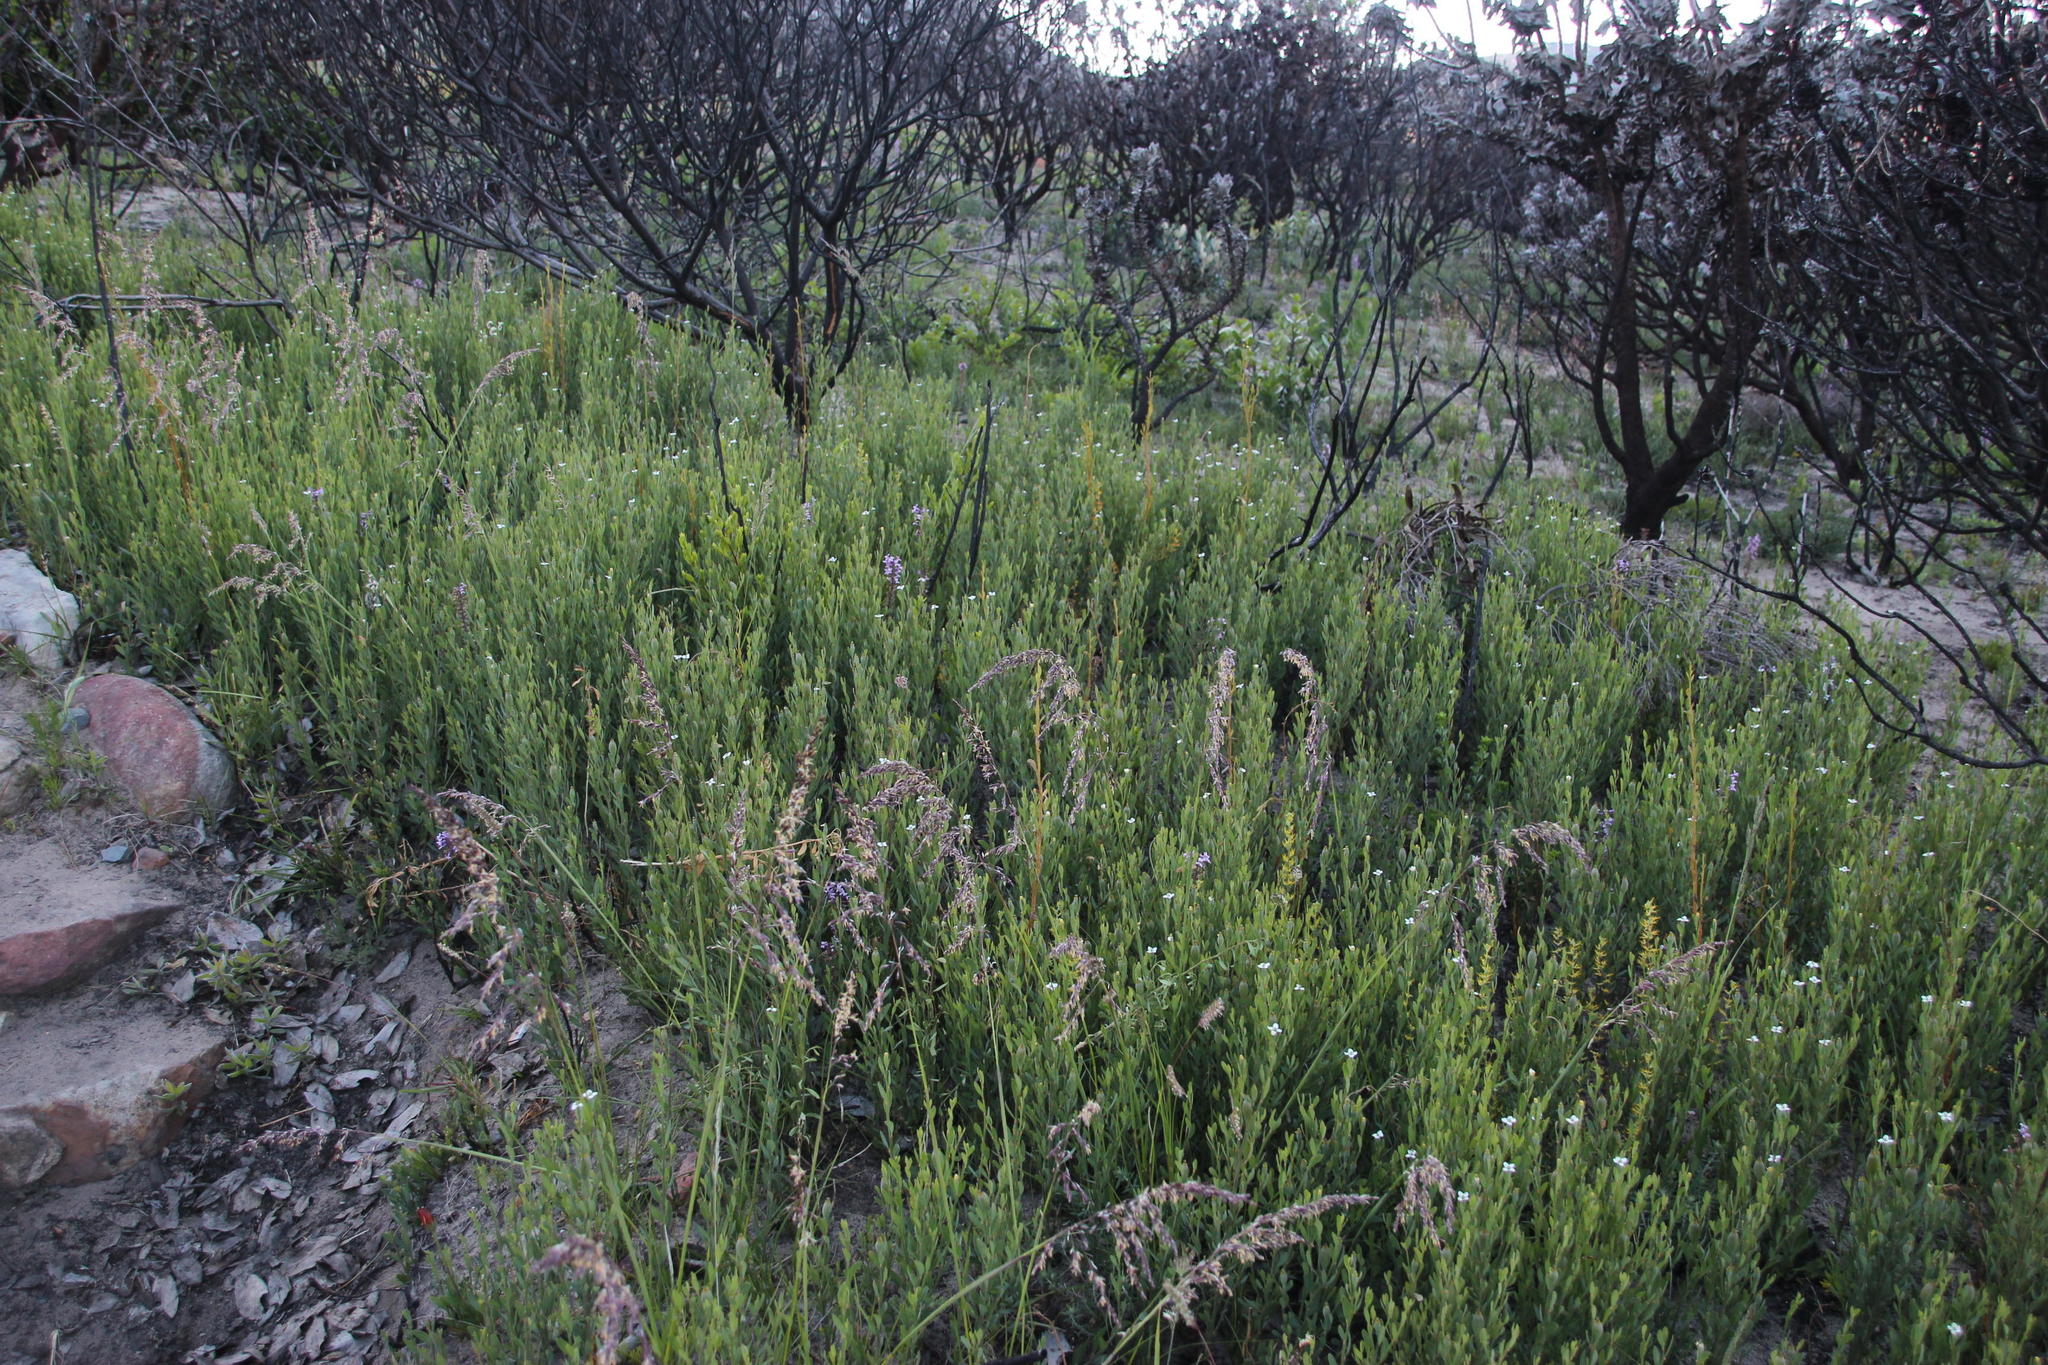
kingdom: Plantae
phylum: Tracheophyta
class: Magnoliopsida
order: Solanales
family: Montiniaceae
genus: Montinia
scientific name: Montinia caryophyllacea
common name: Wild clove-bush
